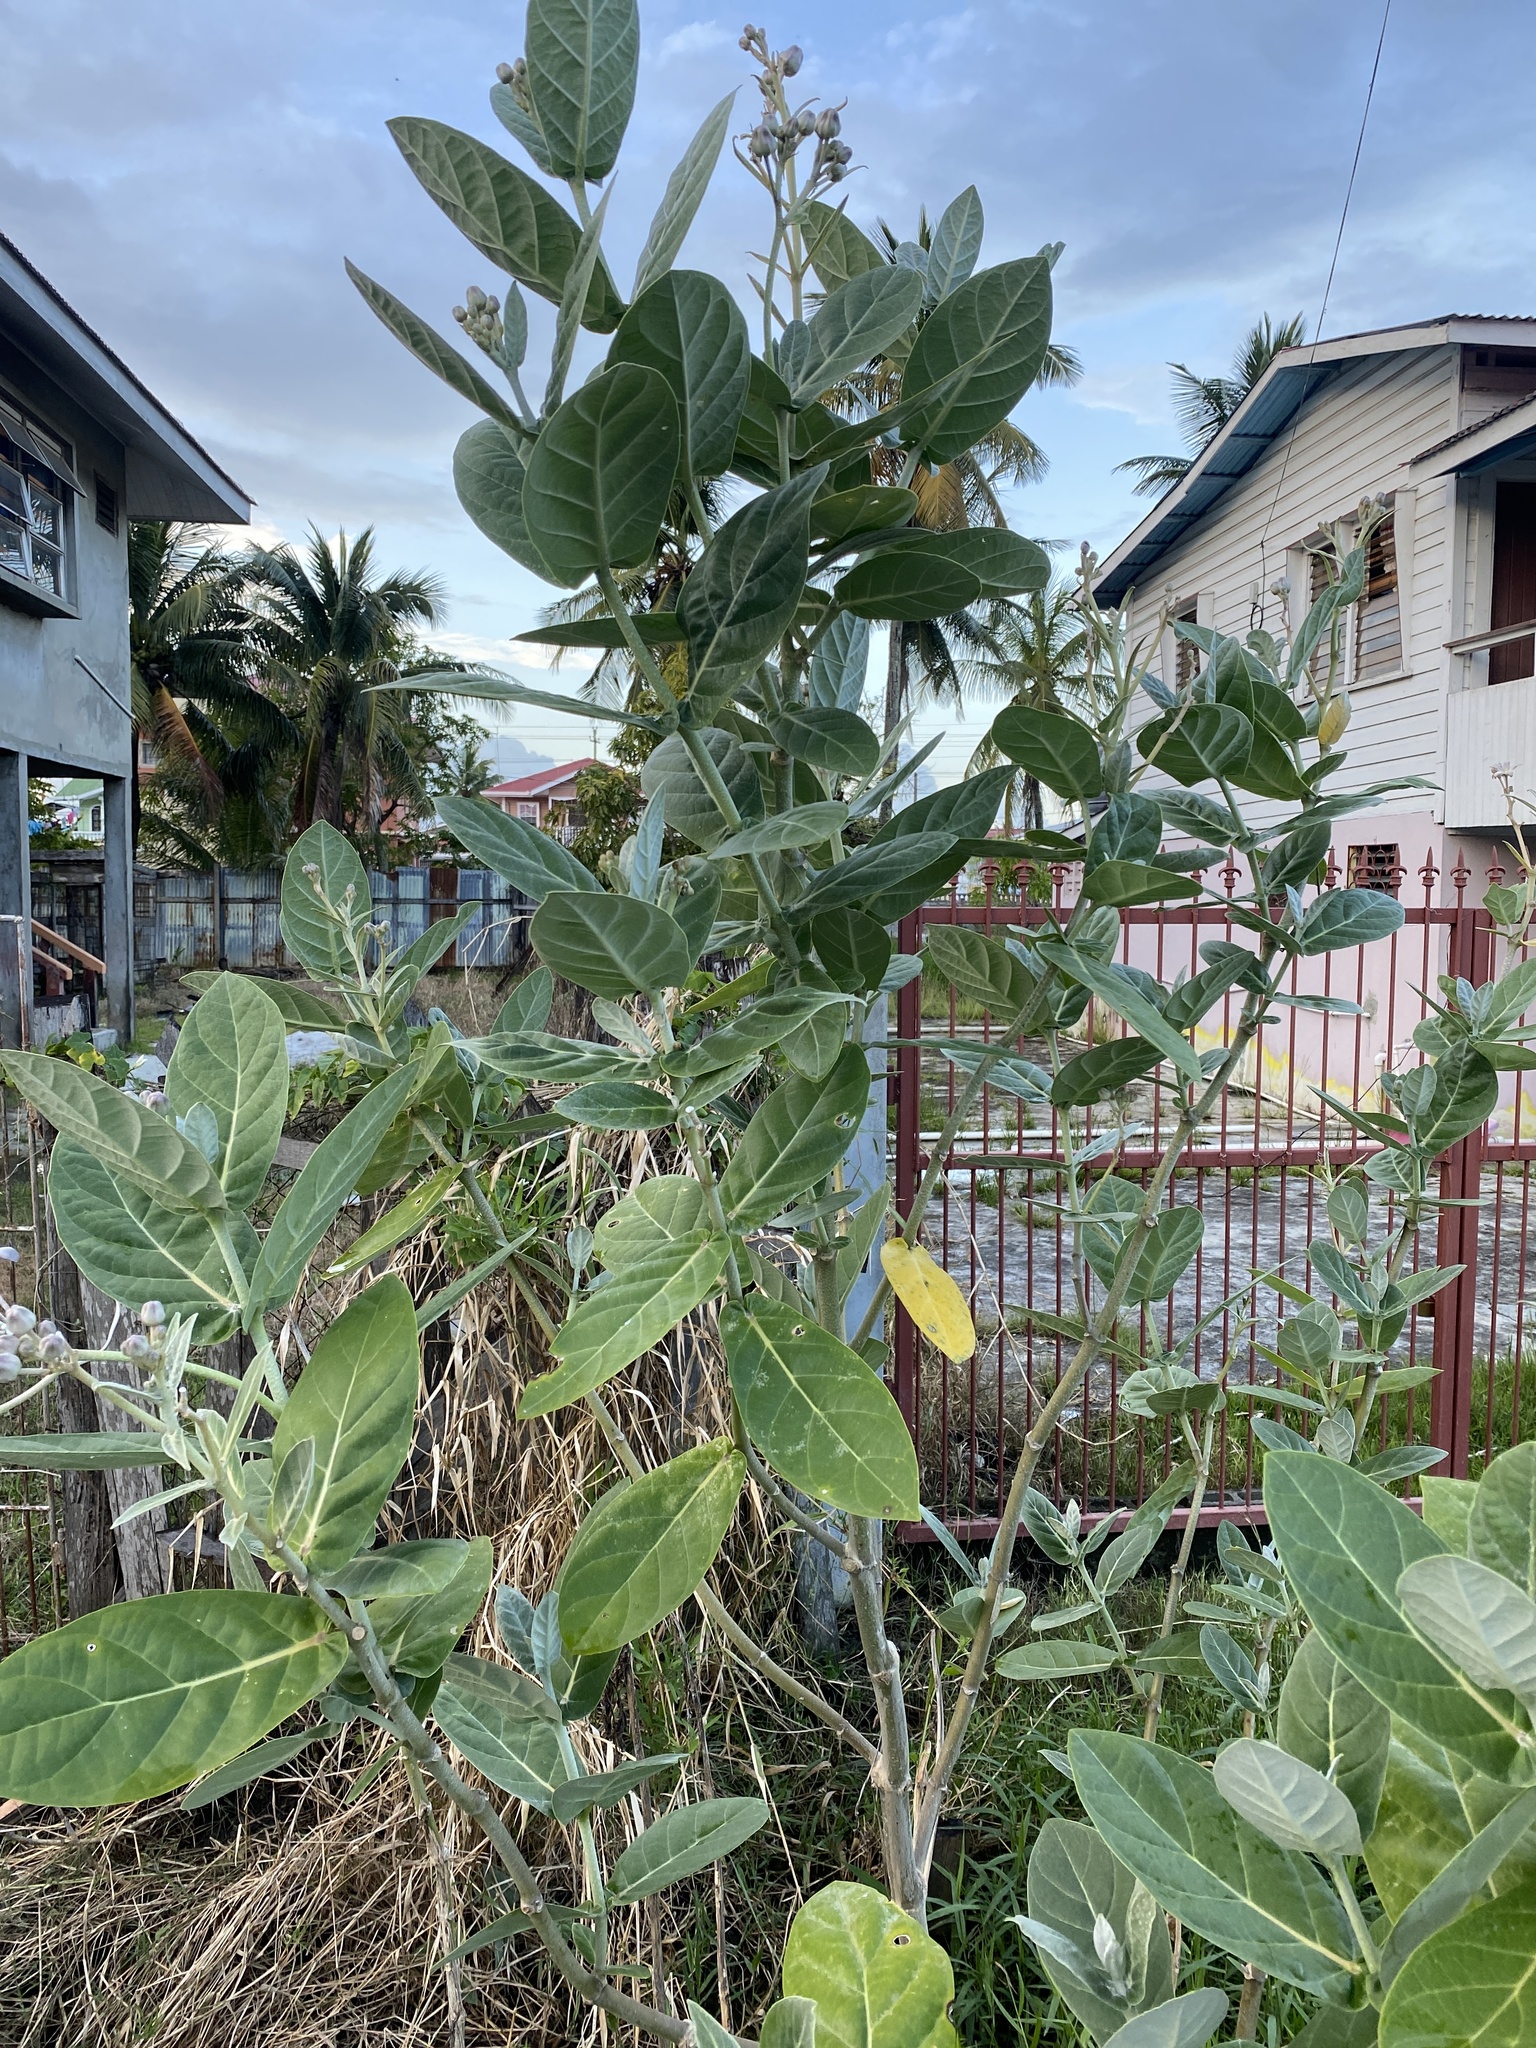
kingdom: Plantae
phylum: Tracheophyta
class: Magnoliopsida
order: Gentianales
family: Apocynaceae
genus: Calotropis
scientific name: Calotropis gigantea
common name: Crown flower
